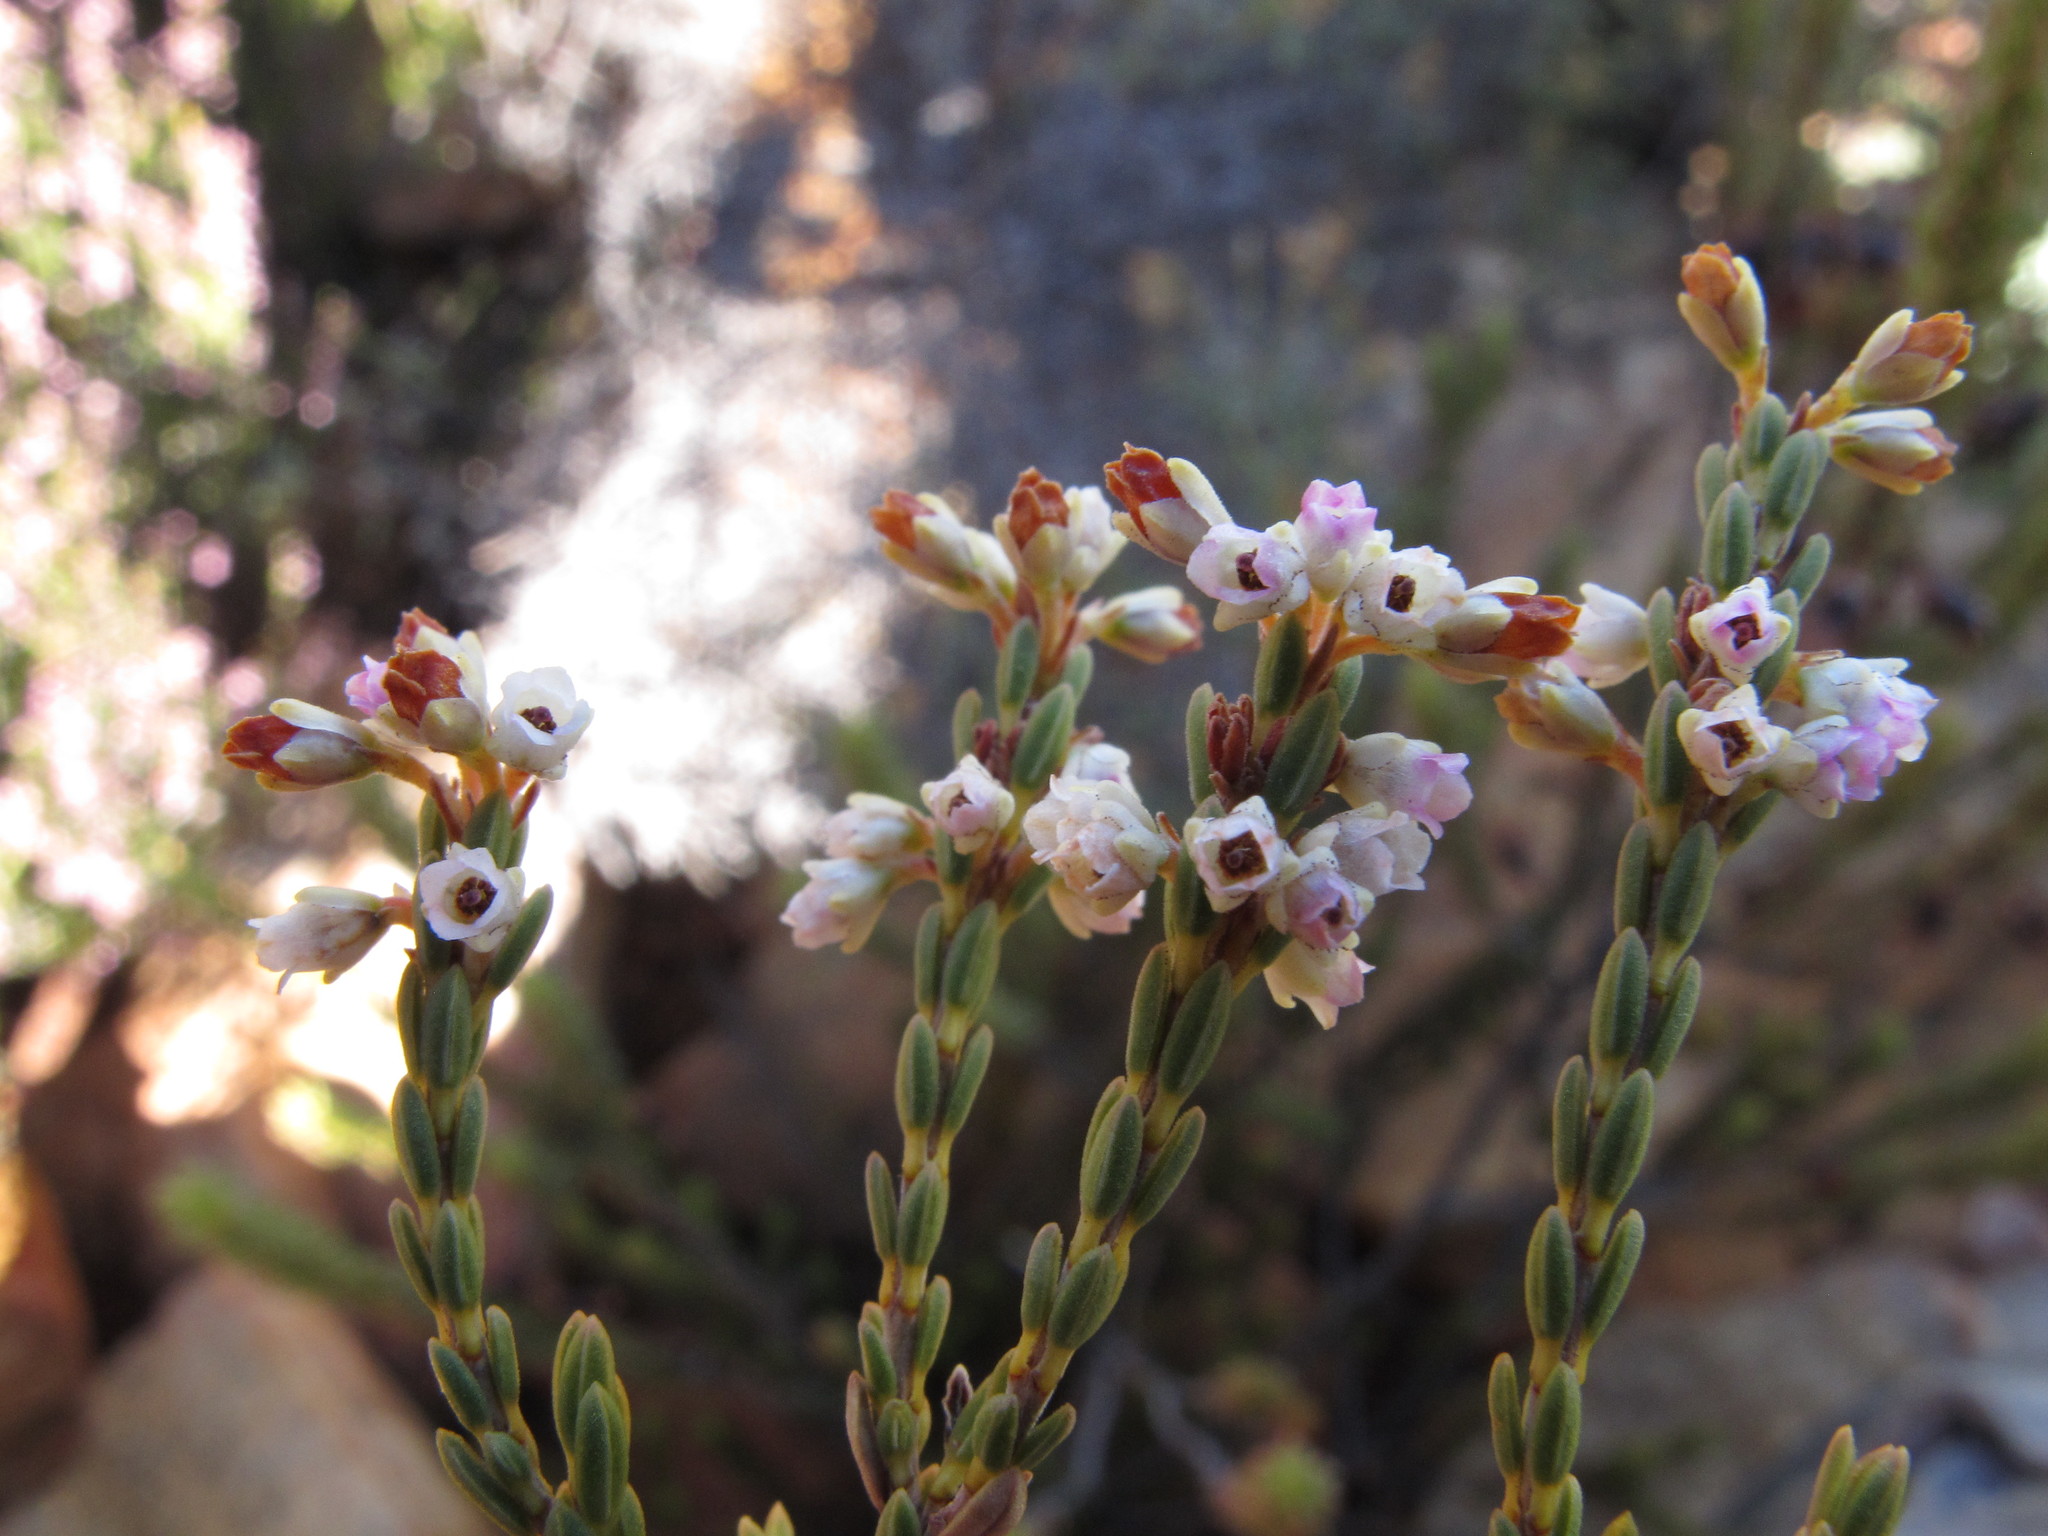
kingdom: Plantae
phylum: Tracheophyta
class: Magnoliopsida
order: Ericales
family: Ericaceae
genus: Erica
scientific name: Erica loganii
